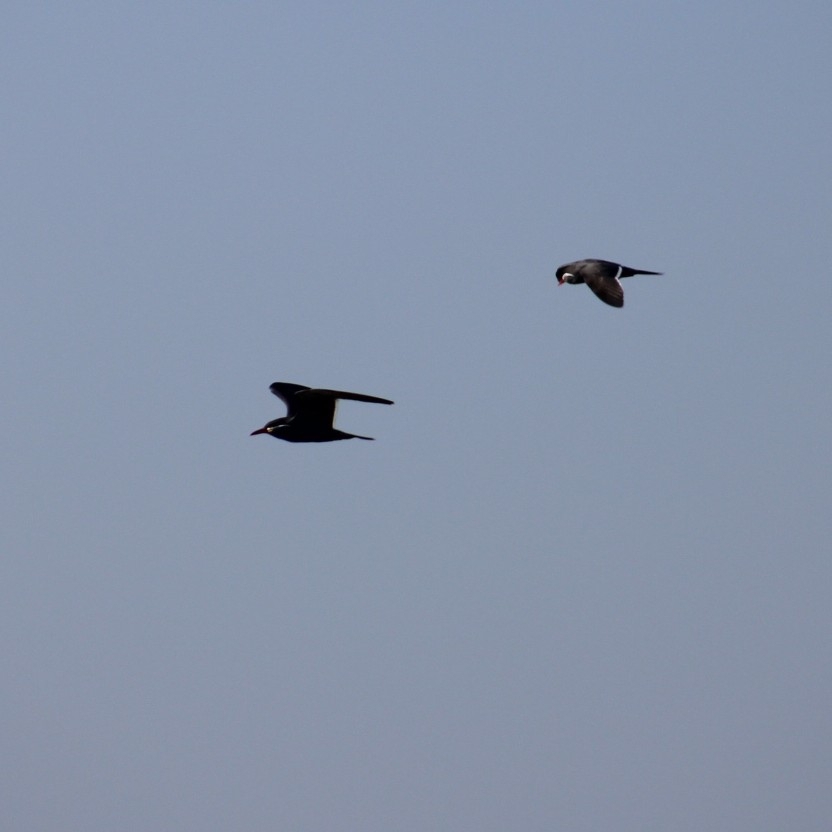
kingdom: Animalia
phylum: Chordata
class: Aves
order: Charadriiformes
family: Laridae
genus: Larosterna
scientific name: Larosterna inca
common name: Inca tern
